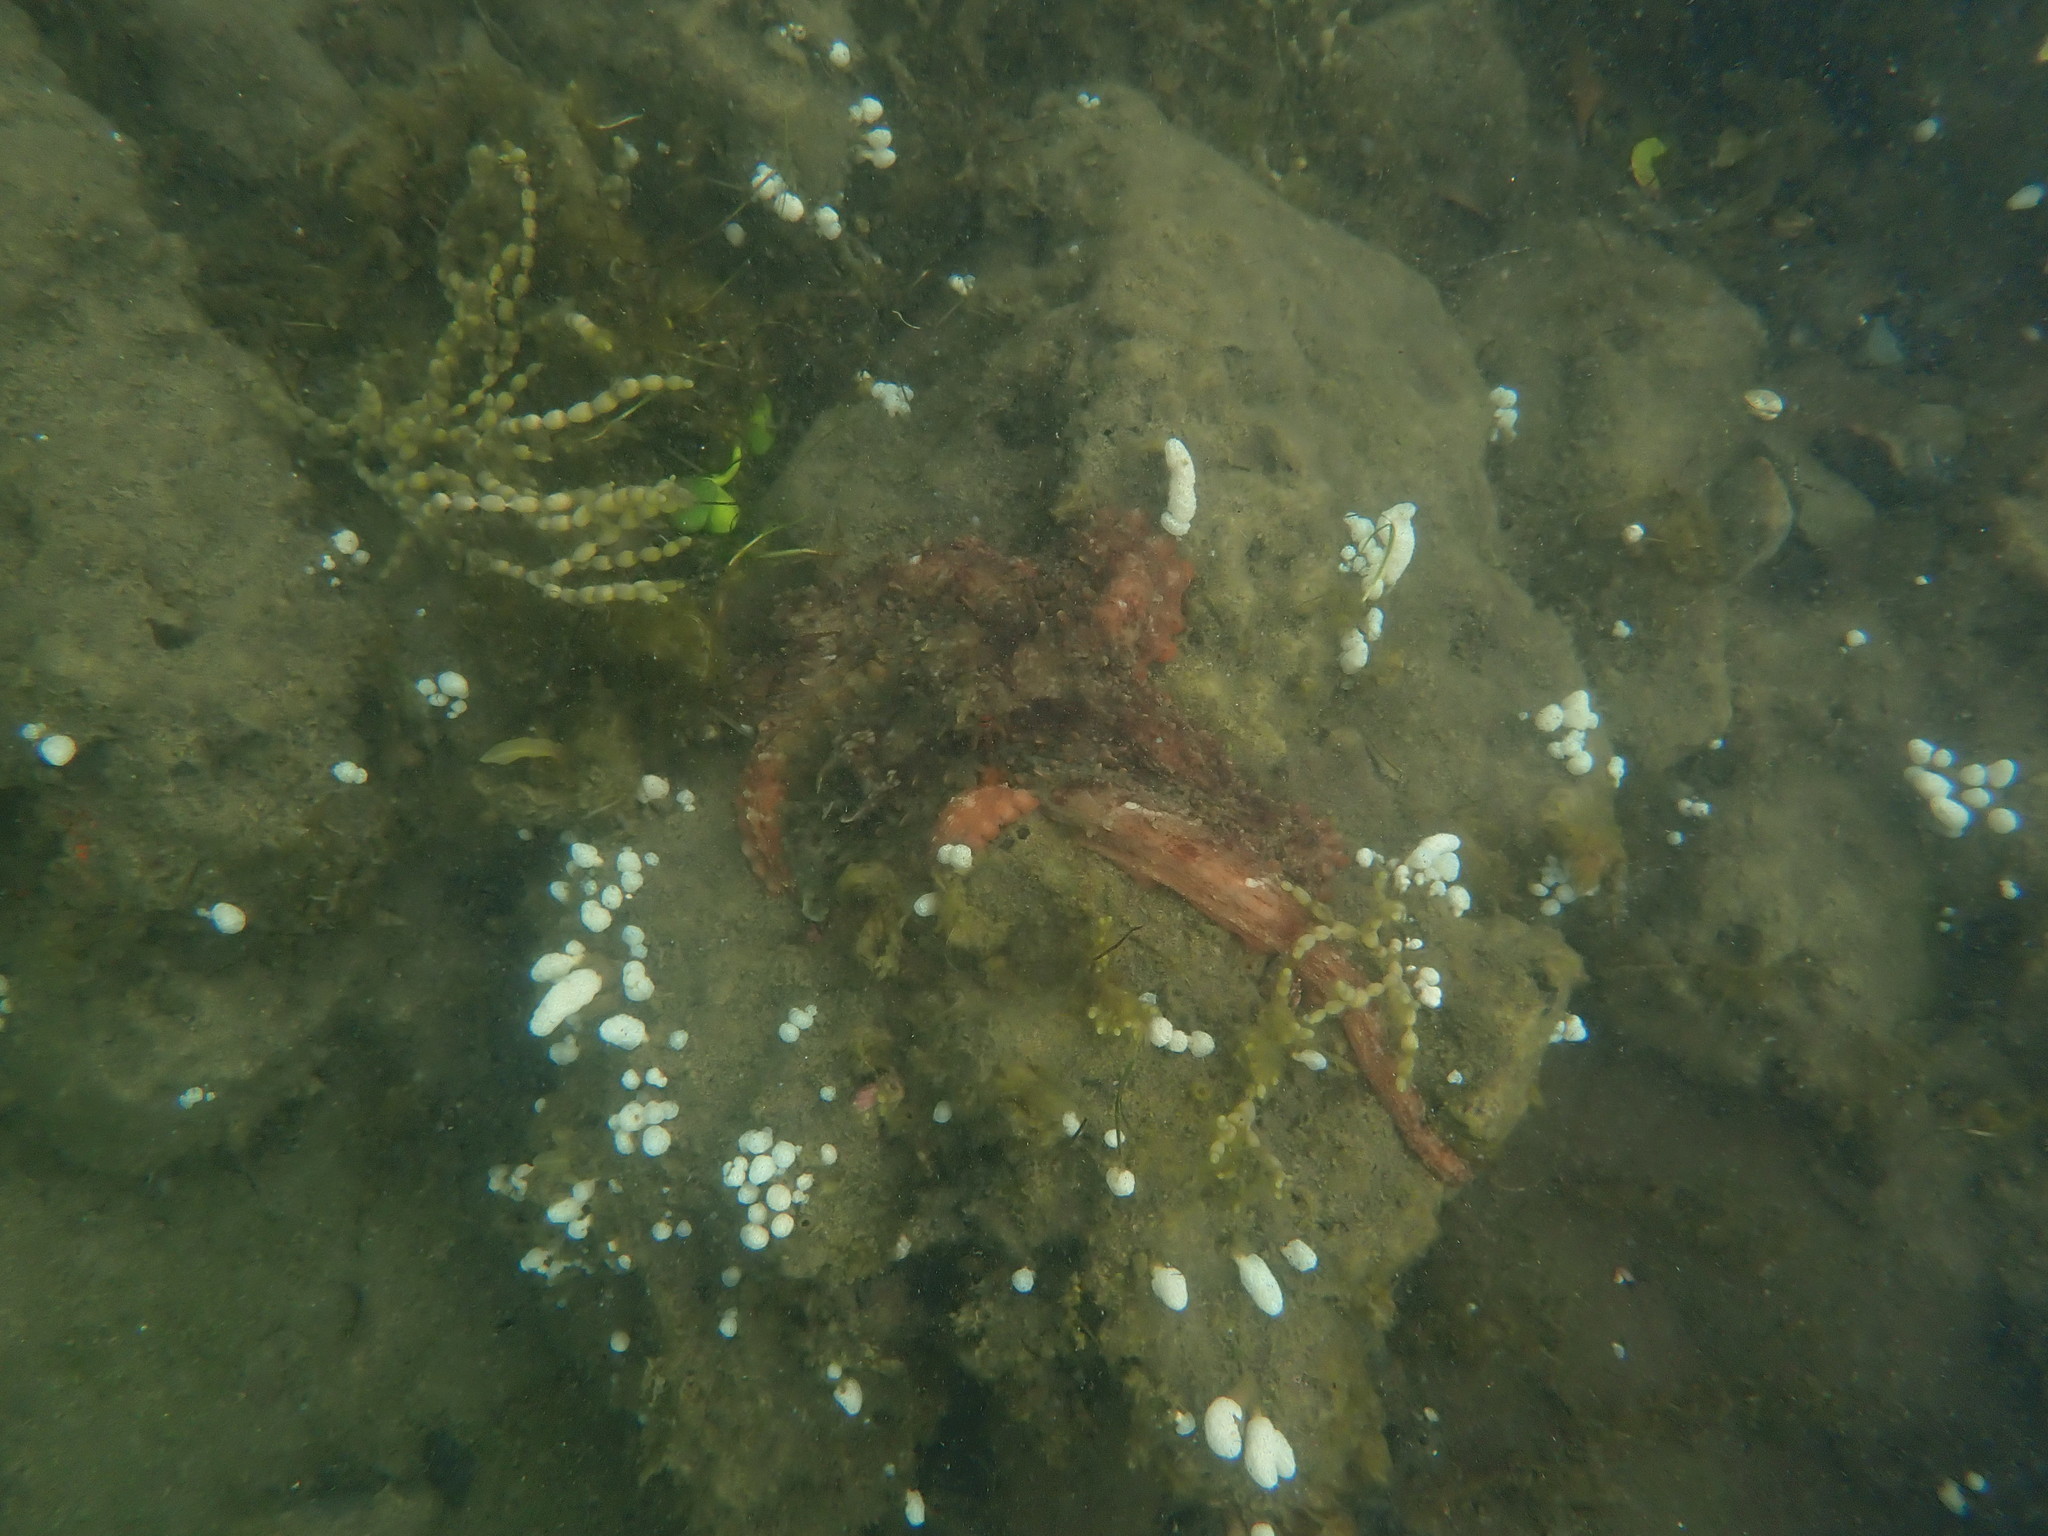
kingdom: Animalia
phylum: Mollusca
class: Cephalopoda
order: Octopoda
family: Octopodidae
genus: Octopus
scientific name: Octopus tetricus
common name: Sydney octopus
